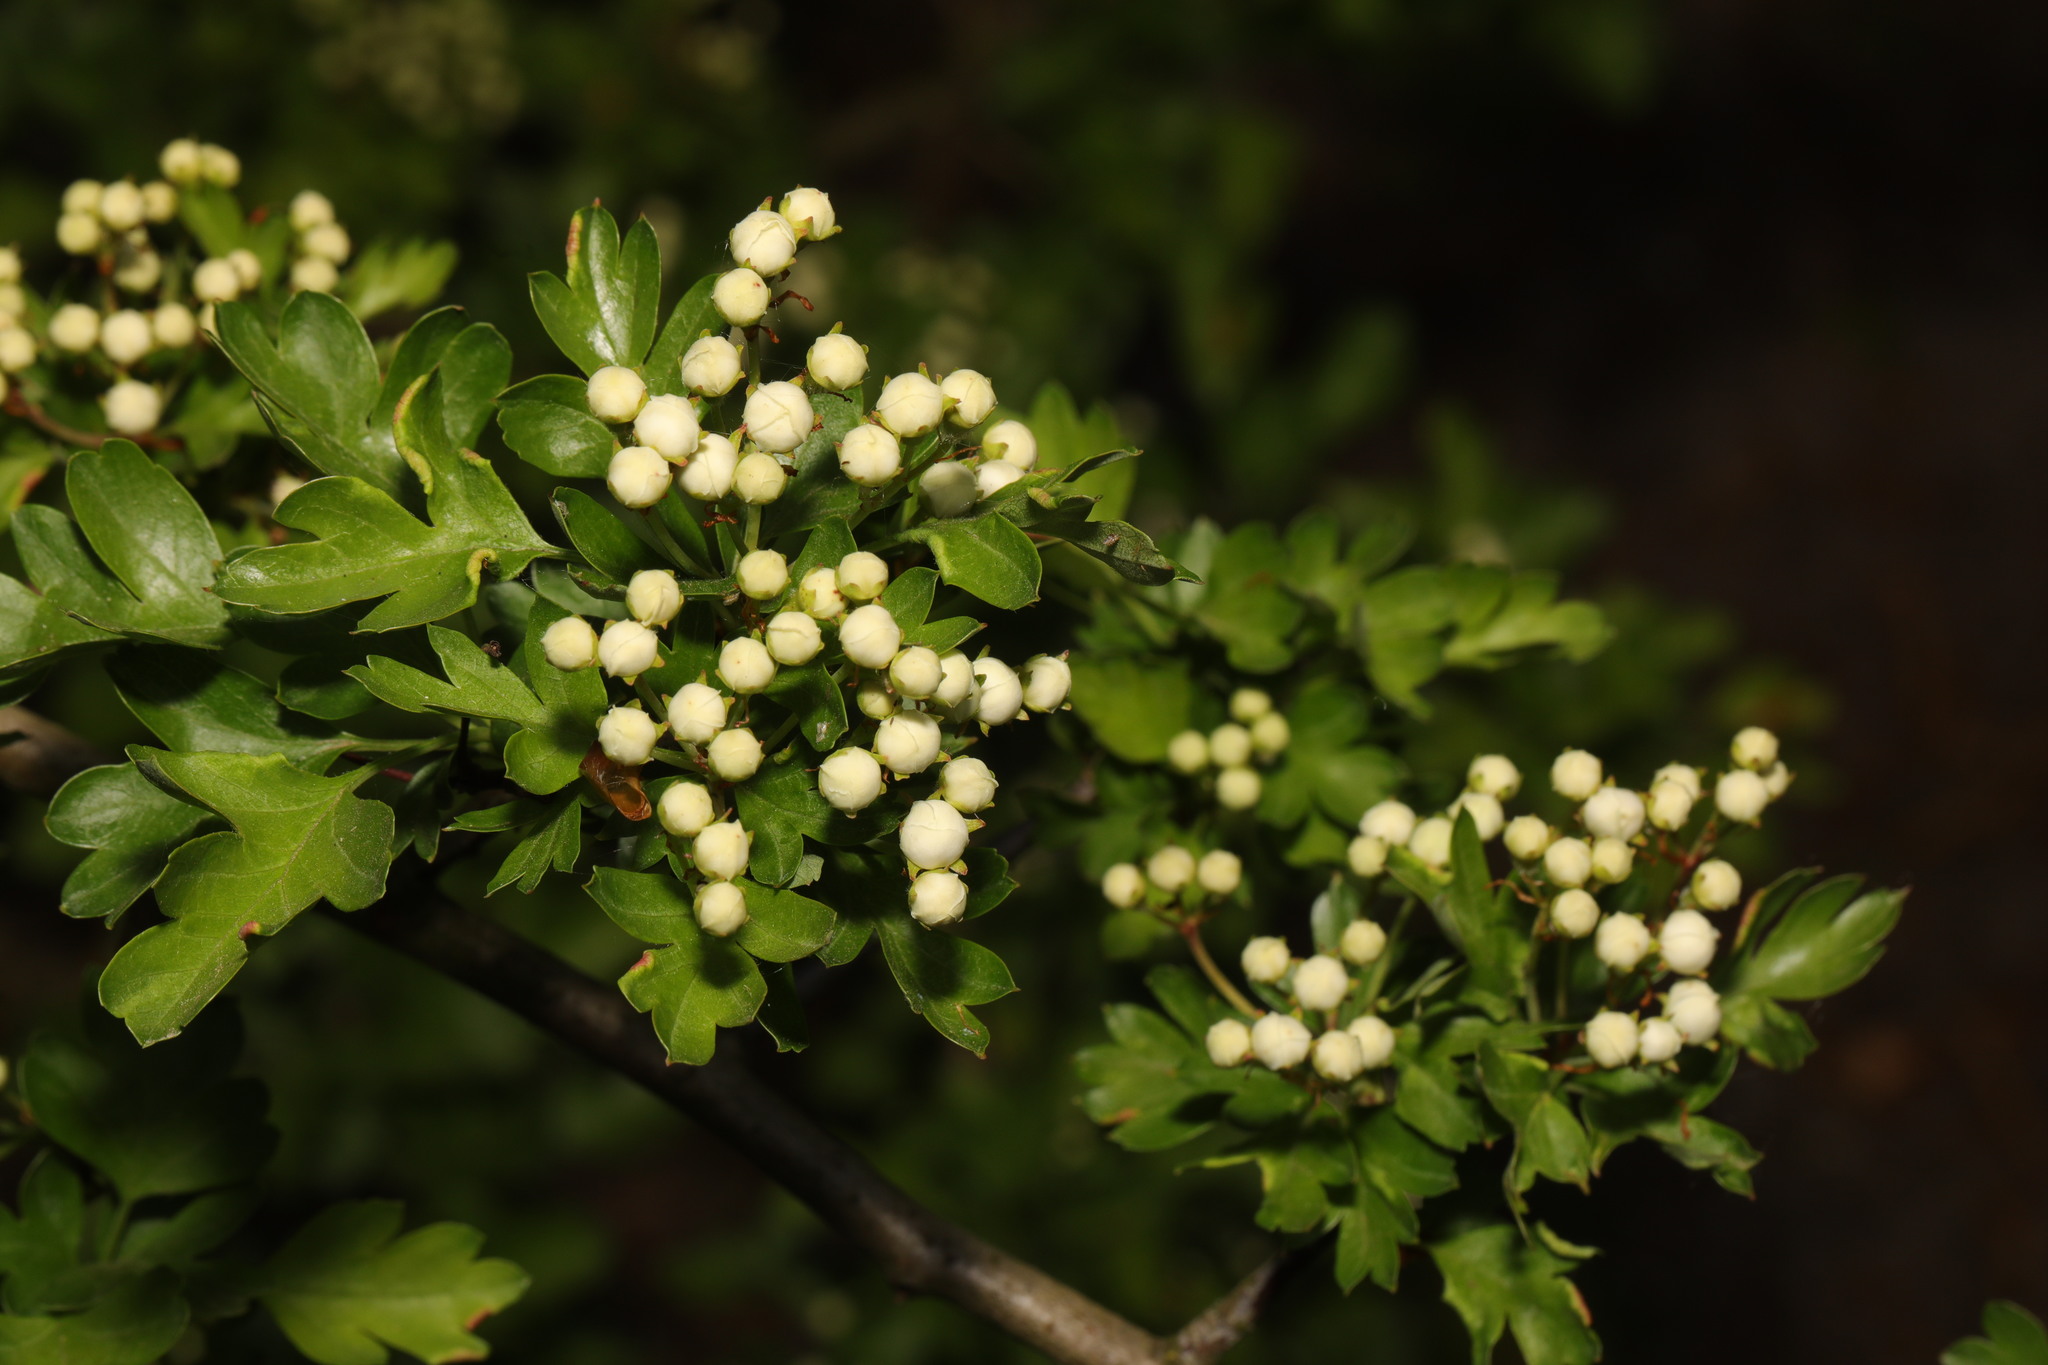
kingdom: Plantae
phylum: Tracheophyta
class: Magnoliopsida
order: Rosales
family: Rosaceae
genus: Crataegus
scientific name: Crataegus monogyna
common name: Hawthorn
